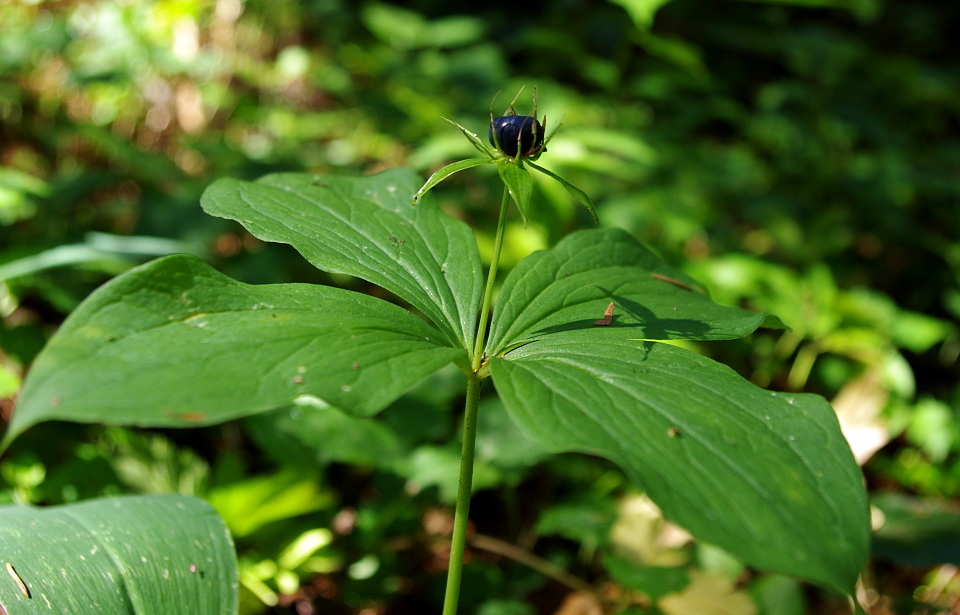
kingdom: Plantae
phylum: Tracheophyta
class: Liliopsida
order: Liliales
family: Melanthiaceae
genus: Paris
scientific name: Paris quadrifolia
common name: Herb-paris
